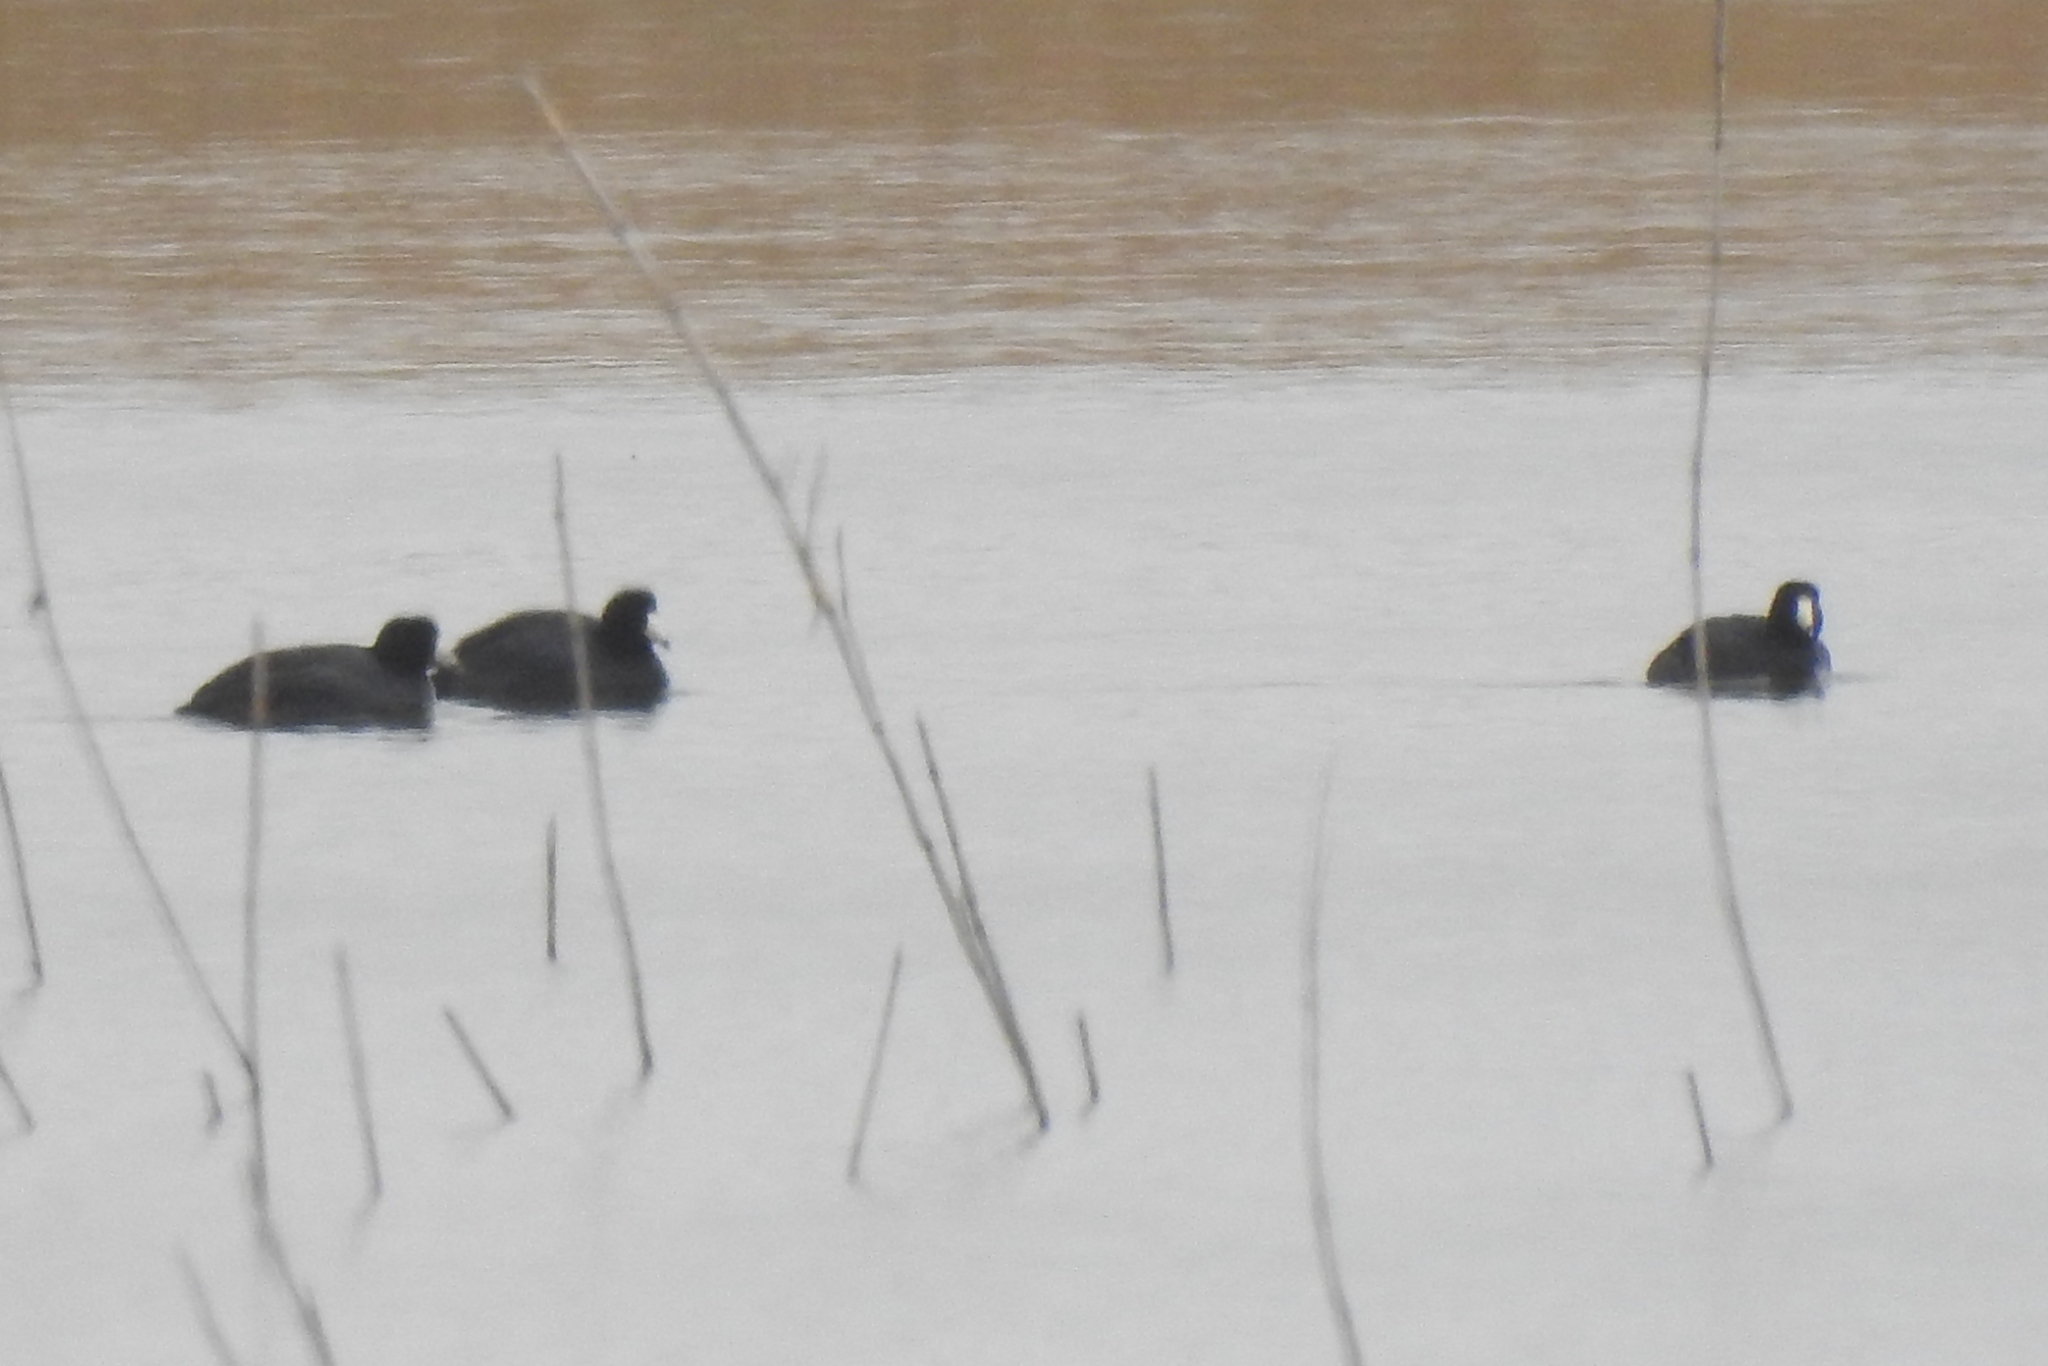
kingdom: Animalia
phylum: Chordata
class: Aves
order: Gruiformes
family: Rallidae
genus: Fulica
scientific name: Fulica americana
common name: American coot
